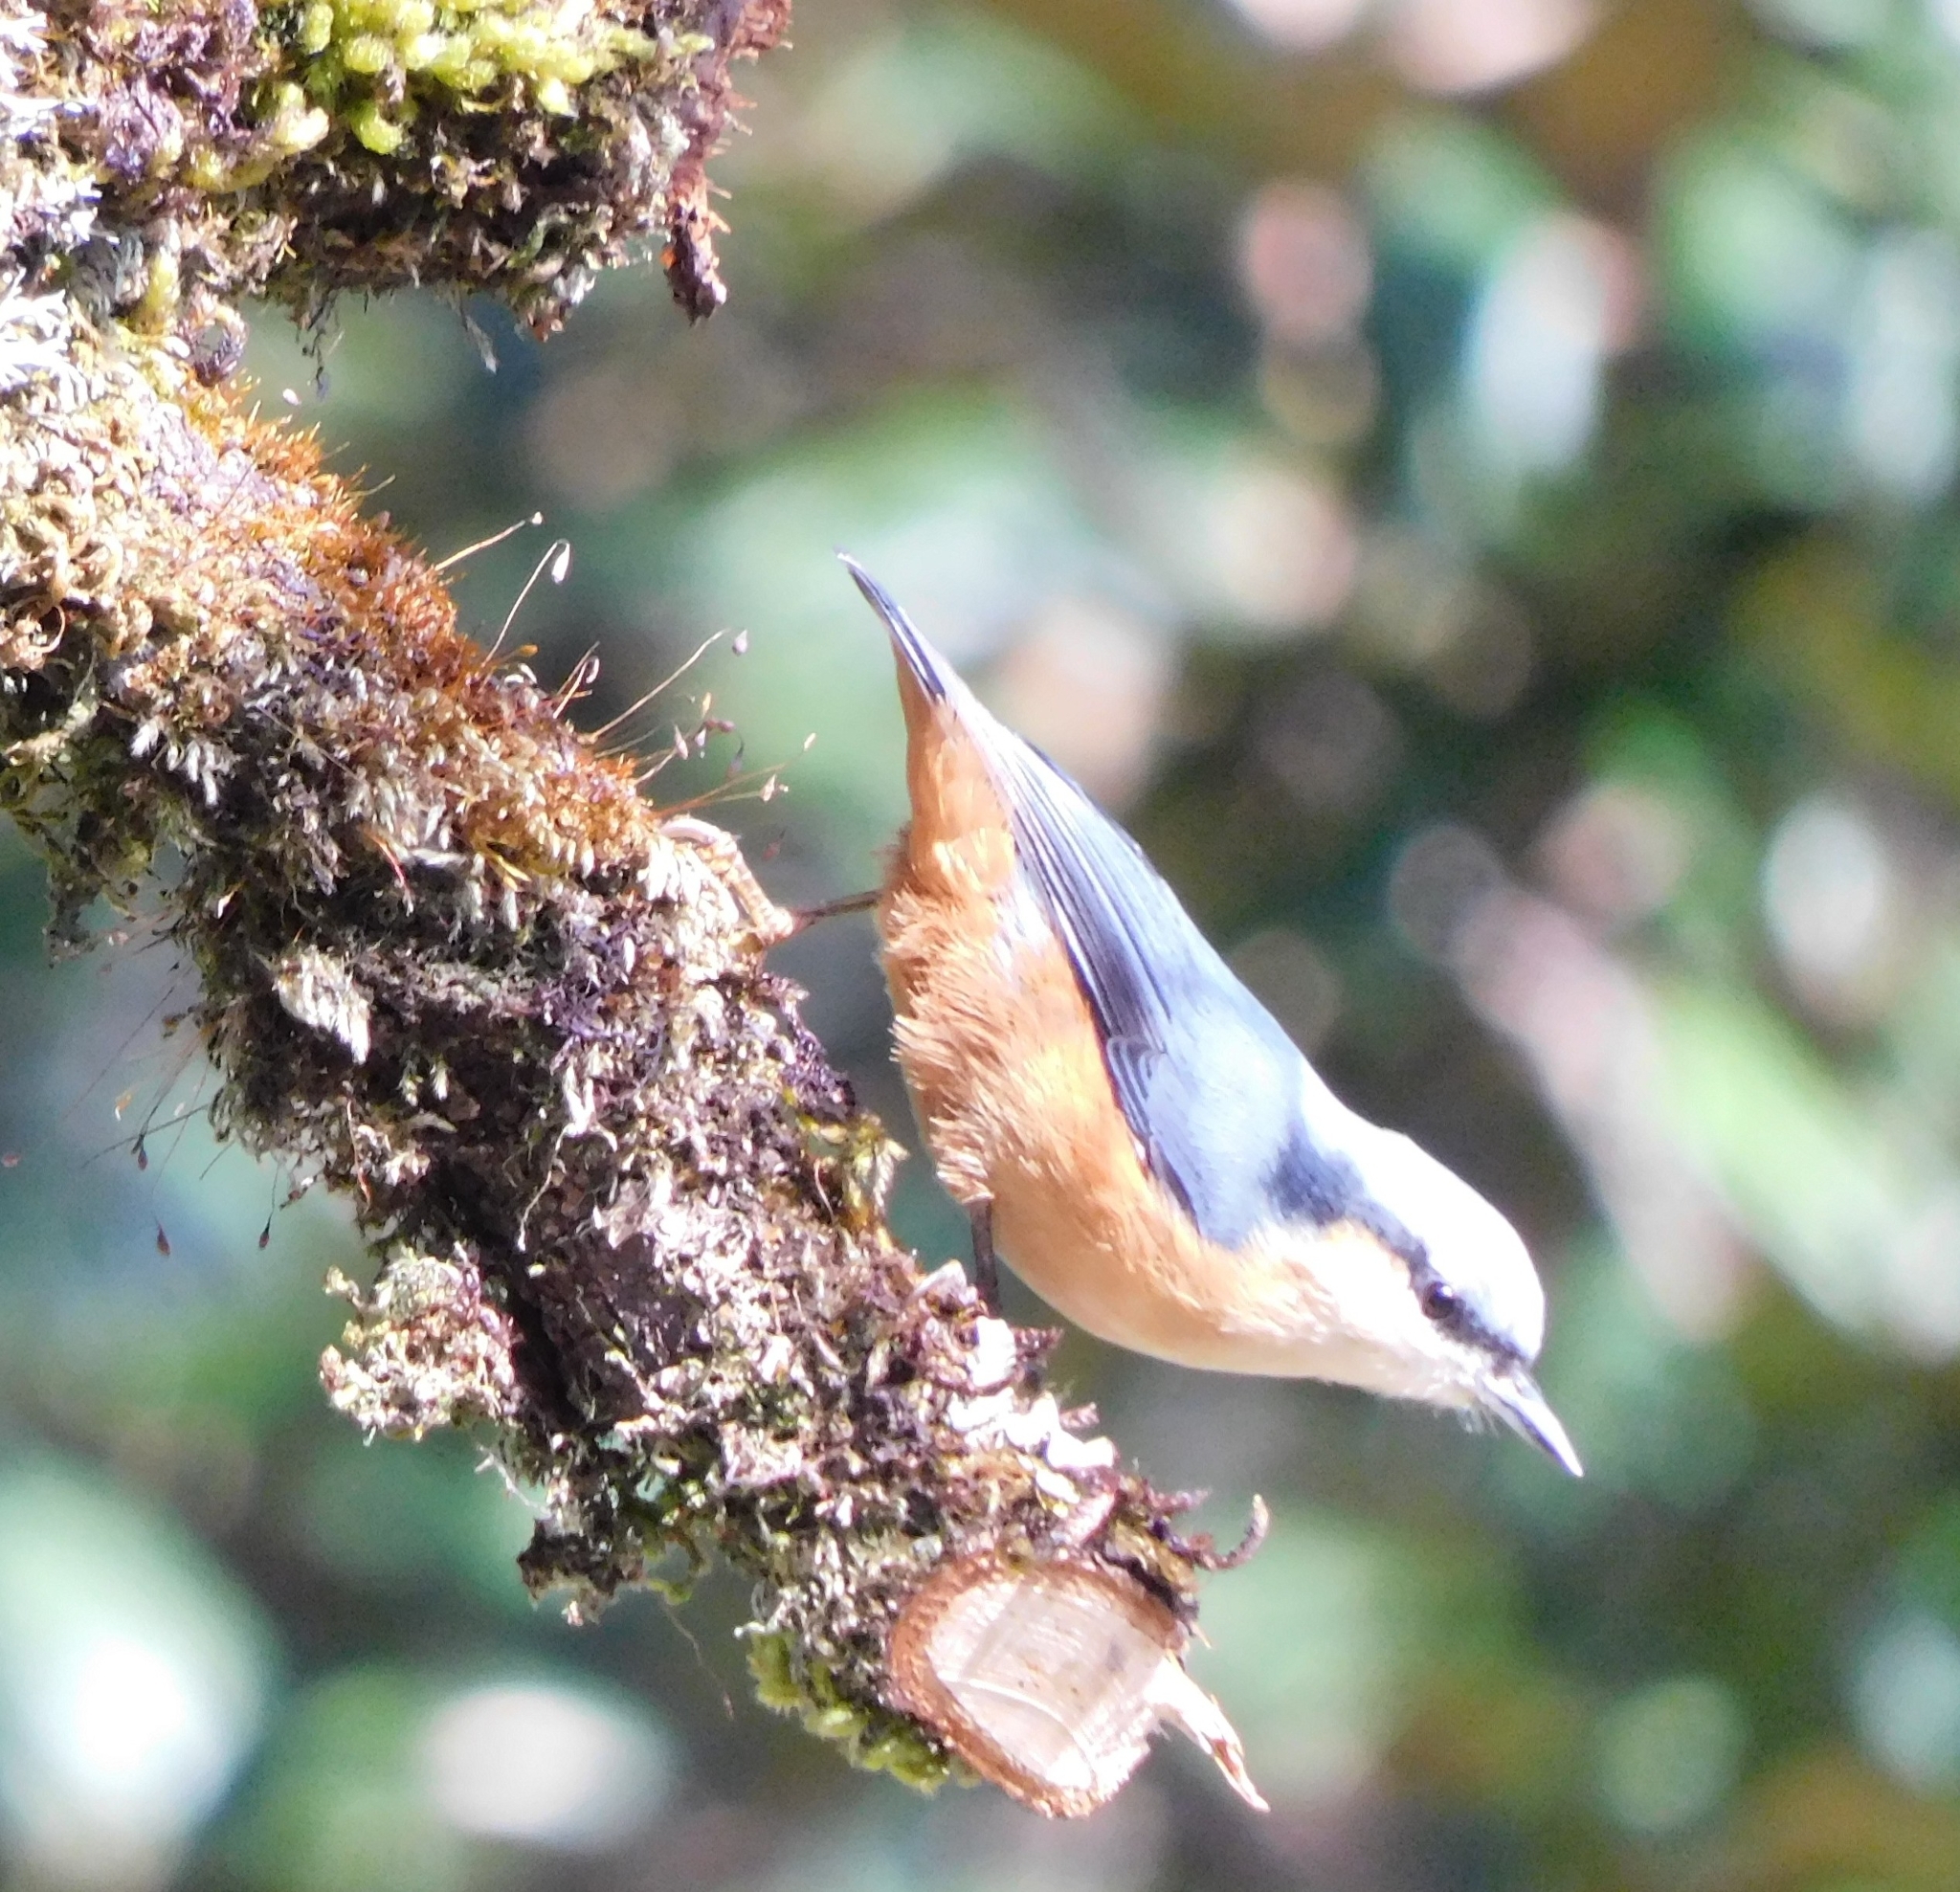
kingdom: Animalia
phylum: Chordata
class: Aves
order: Passeriformes
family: Sittidae
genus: Sitta
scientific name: Sitta himalayensis
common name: White-tailed nuthatch
